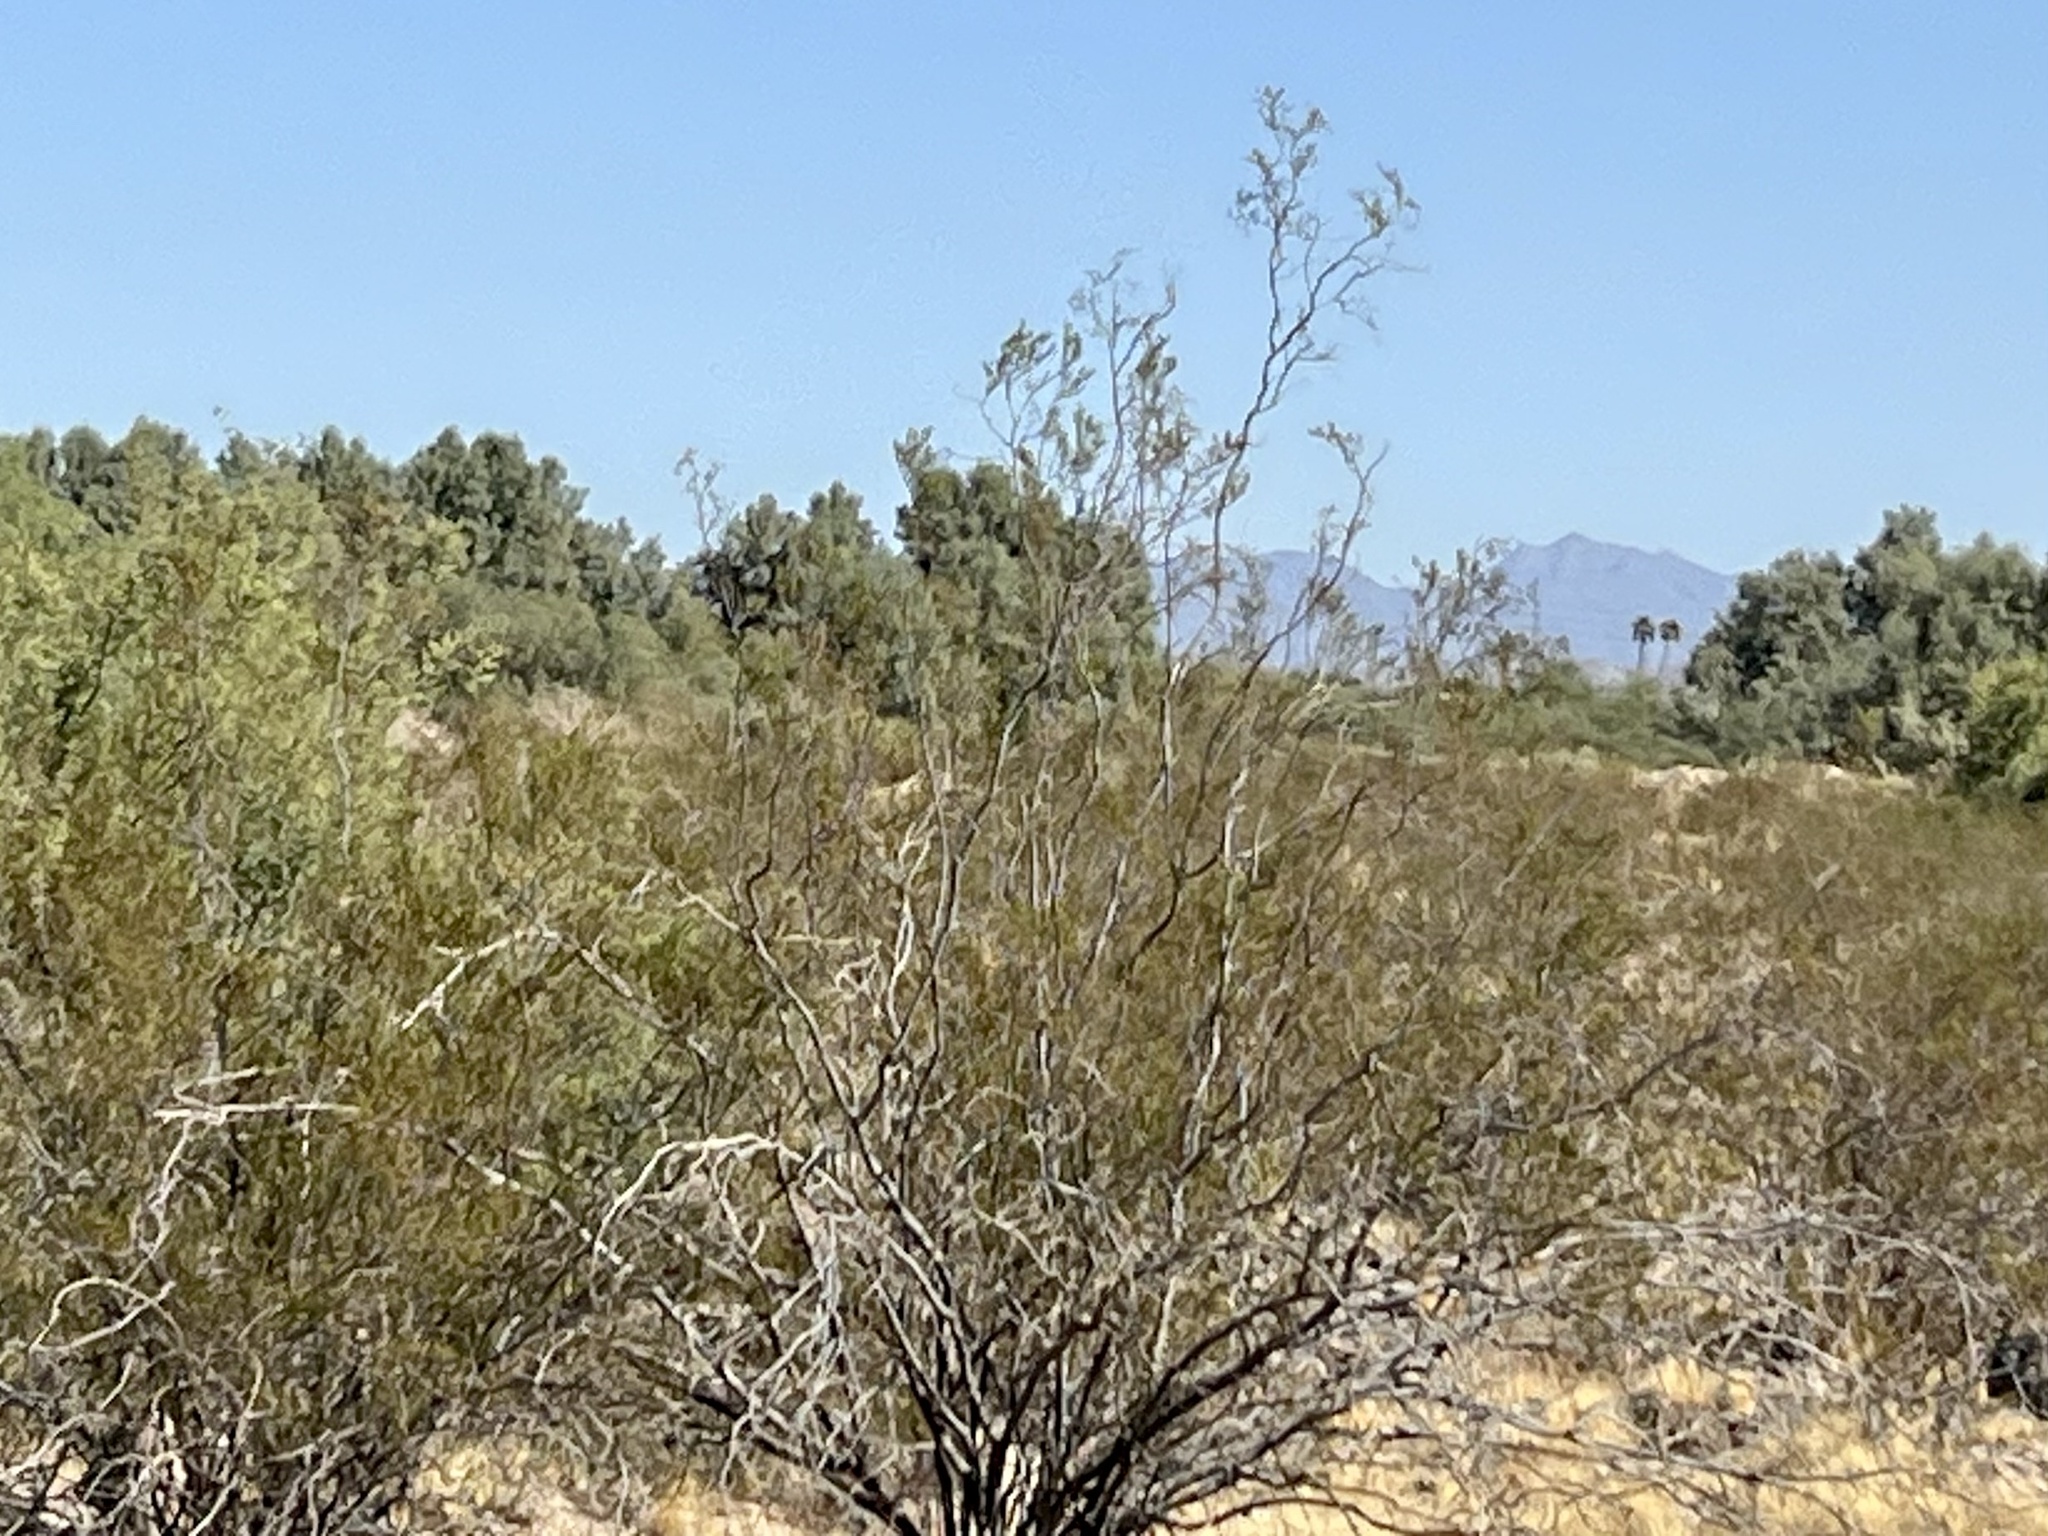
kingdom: Plantae
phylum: Tracheophyta
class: Magnoliopsida
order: Zygophyllales
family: Zygophyllaceae
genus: Larrea
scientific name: Larrea tridentata
